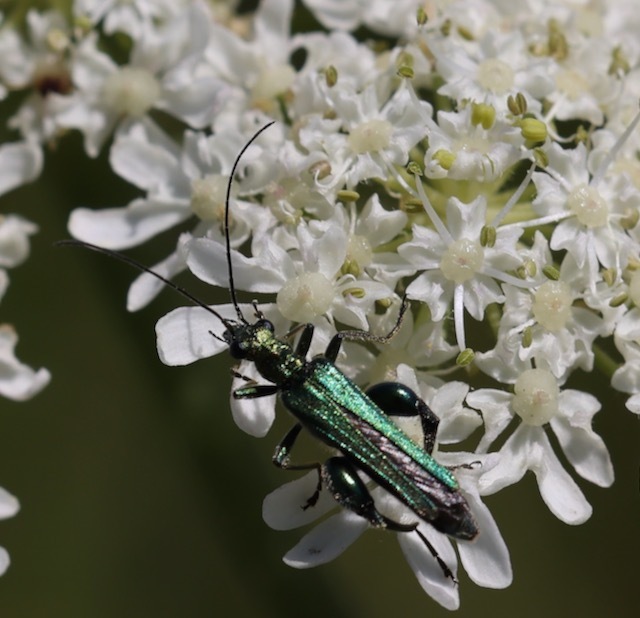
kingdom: Animalia
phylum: Arthropoda
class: Insecta
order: Coleoptera
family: Oedemeridae
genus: Oedemera
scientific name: Oedemera nobilis
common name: Swollen-thighed beetle
